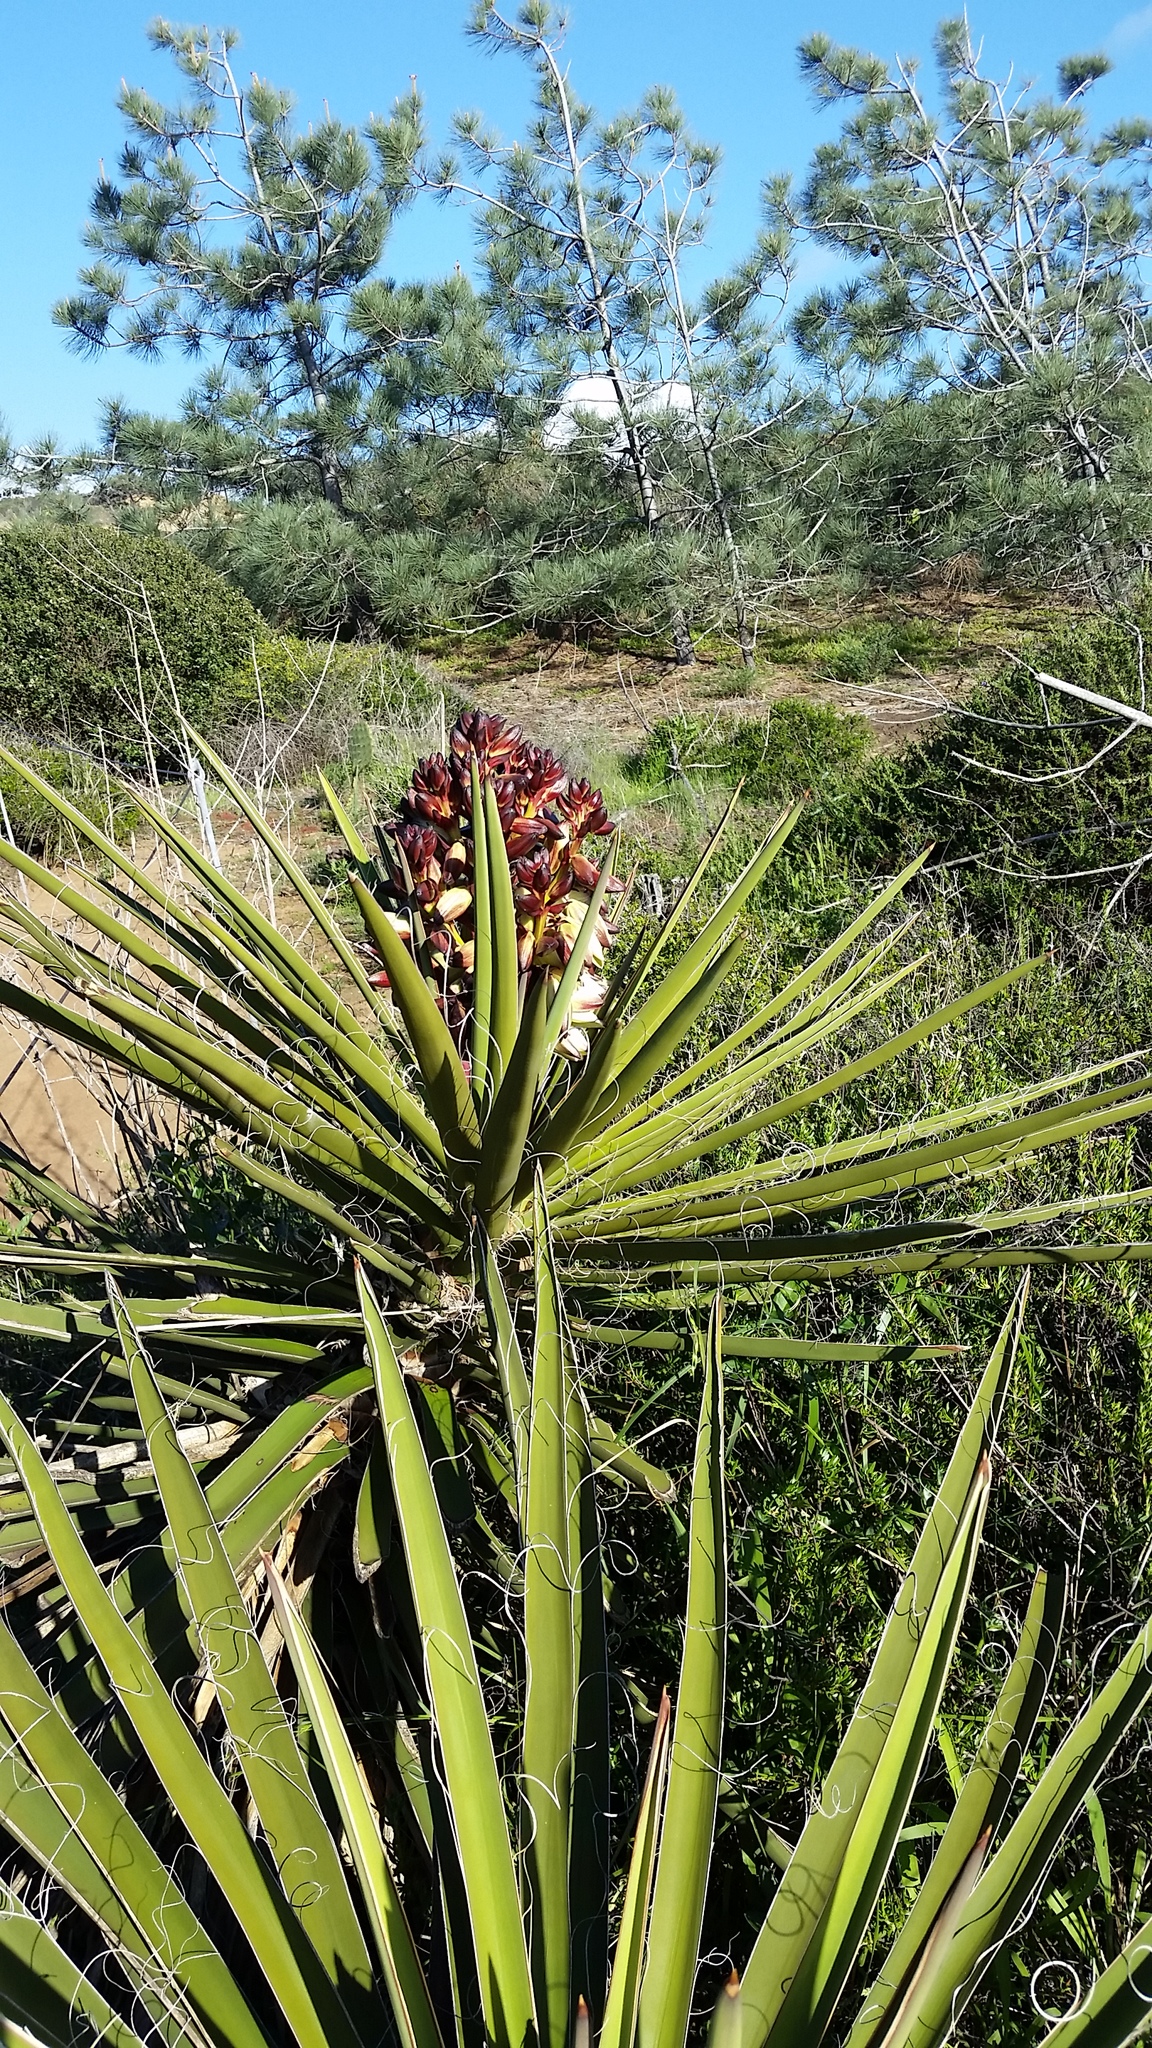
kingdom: Plantae
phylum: Tracheophyta
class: Liliopsida
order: Asparagales
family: Asparagaceae
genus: Yucca
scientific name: Yucca schidigera
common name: Mojave yucca
